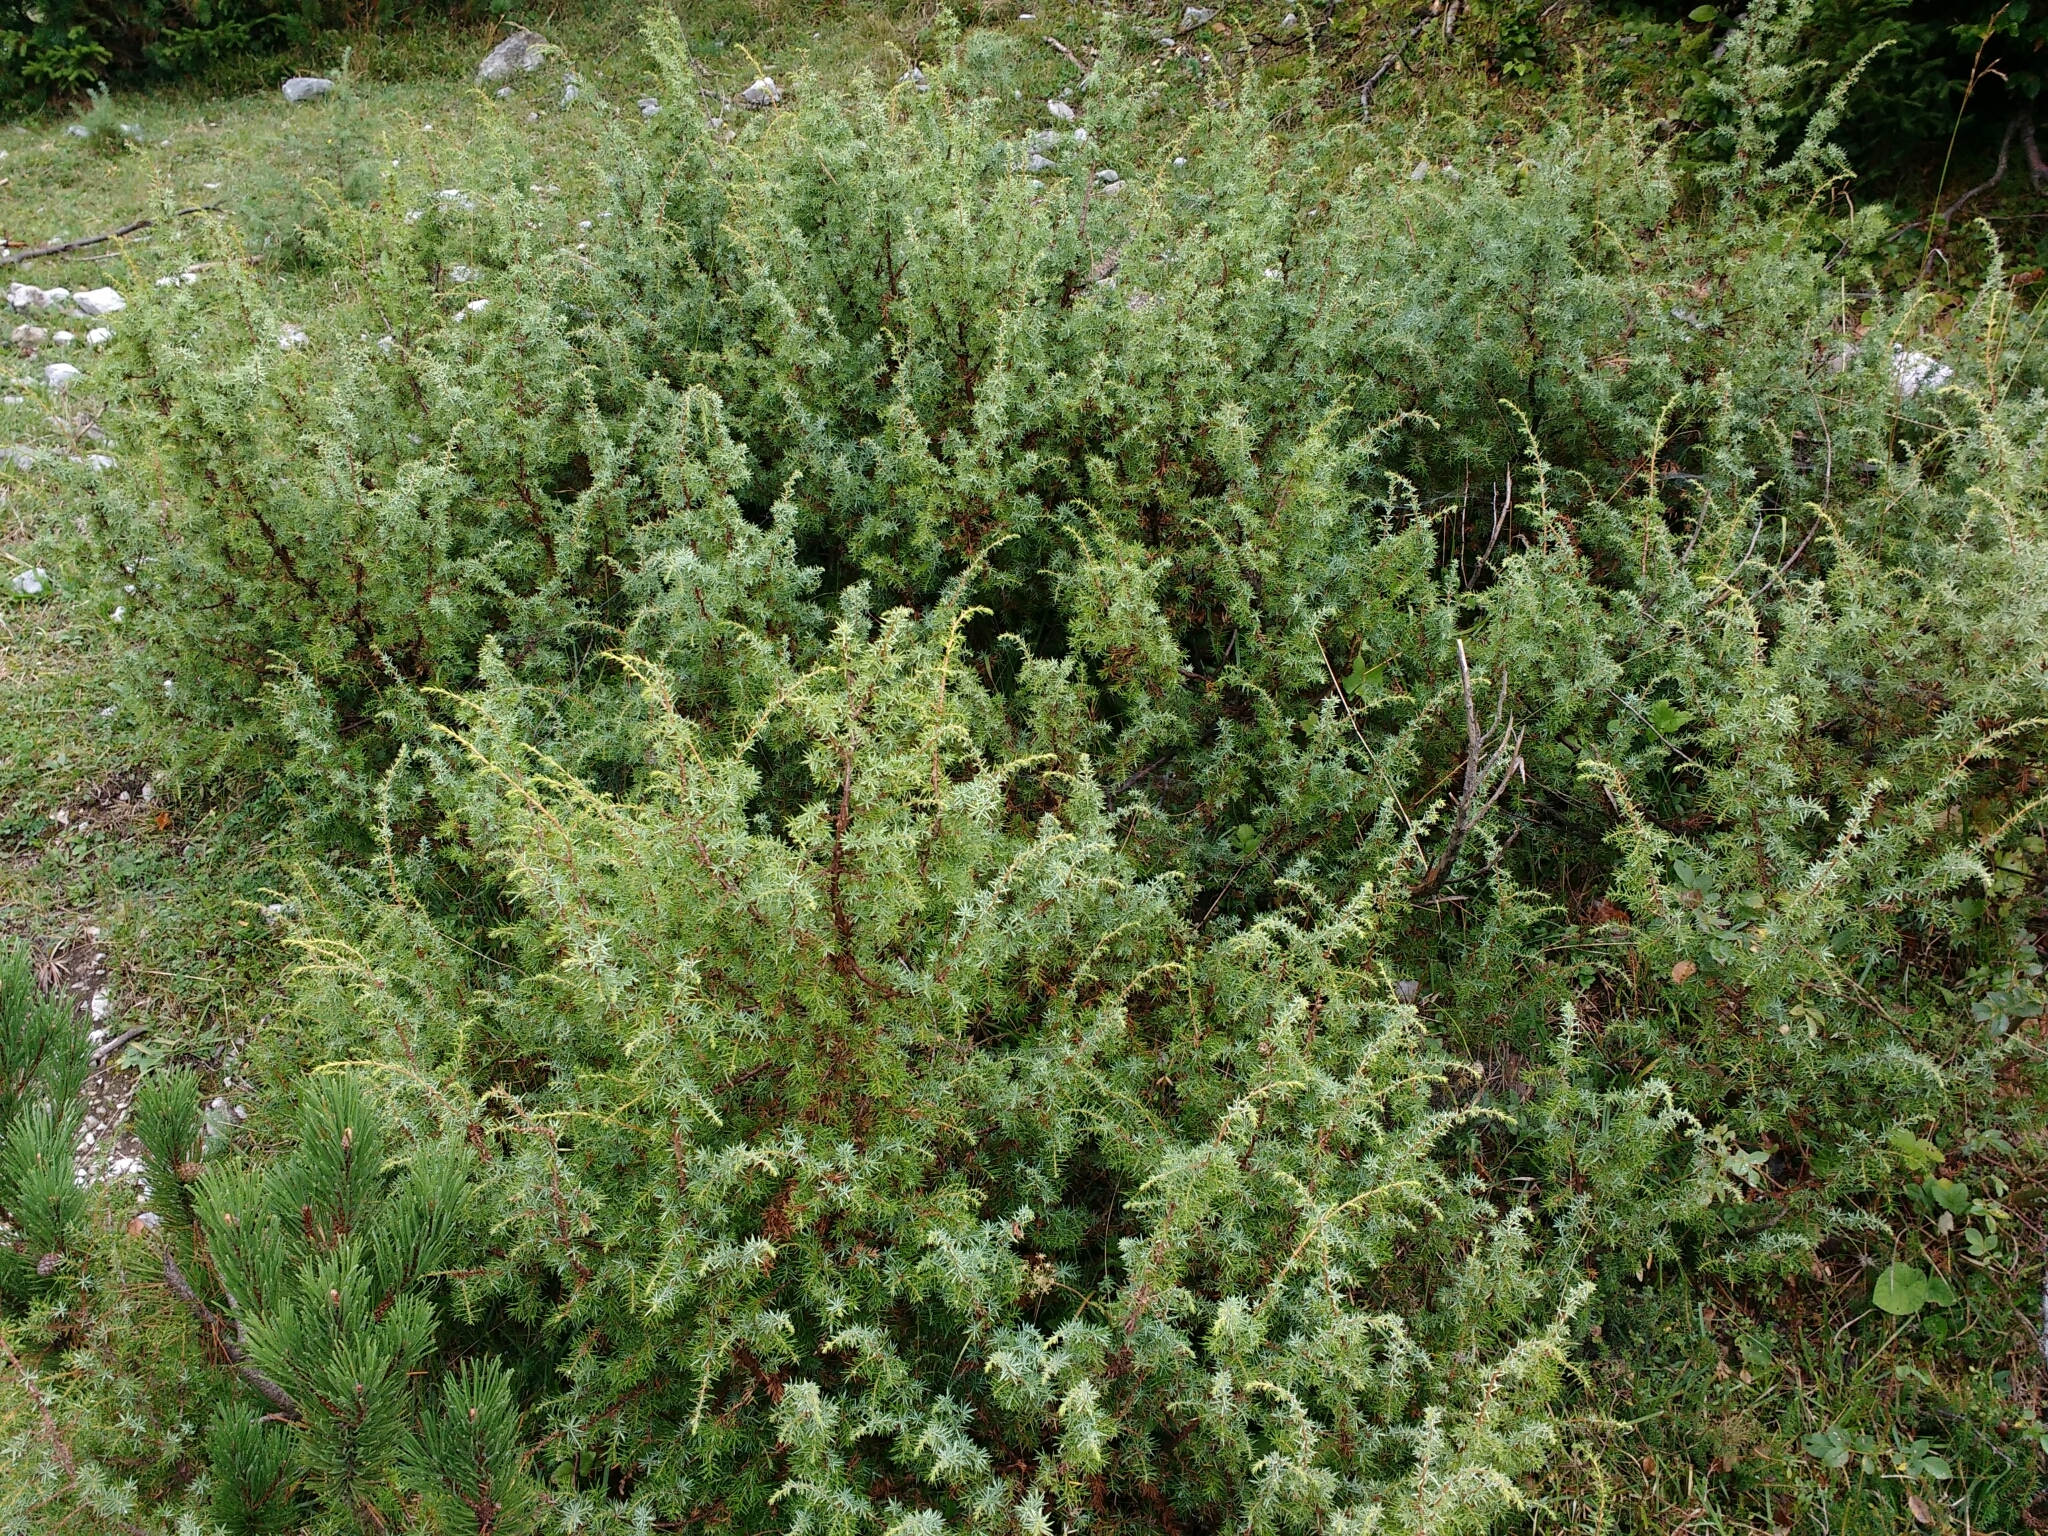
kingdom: Plantae
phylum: Tracheophyta
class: Pinopsida
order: Pinales
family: Cupressaceae
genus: Juniperus
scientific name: Juniperus communis
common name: Common juniper
